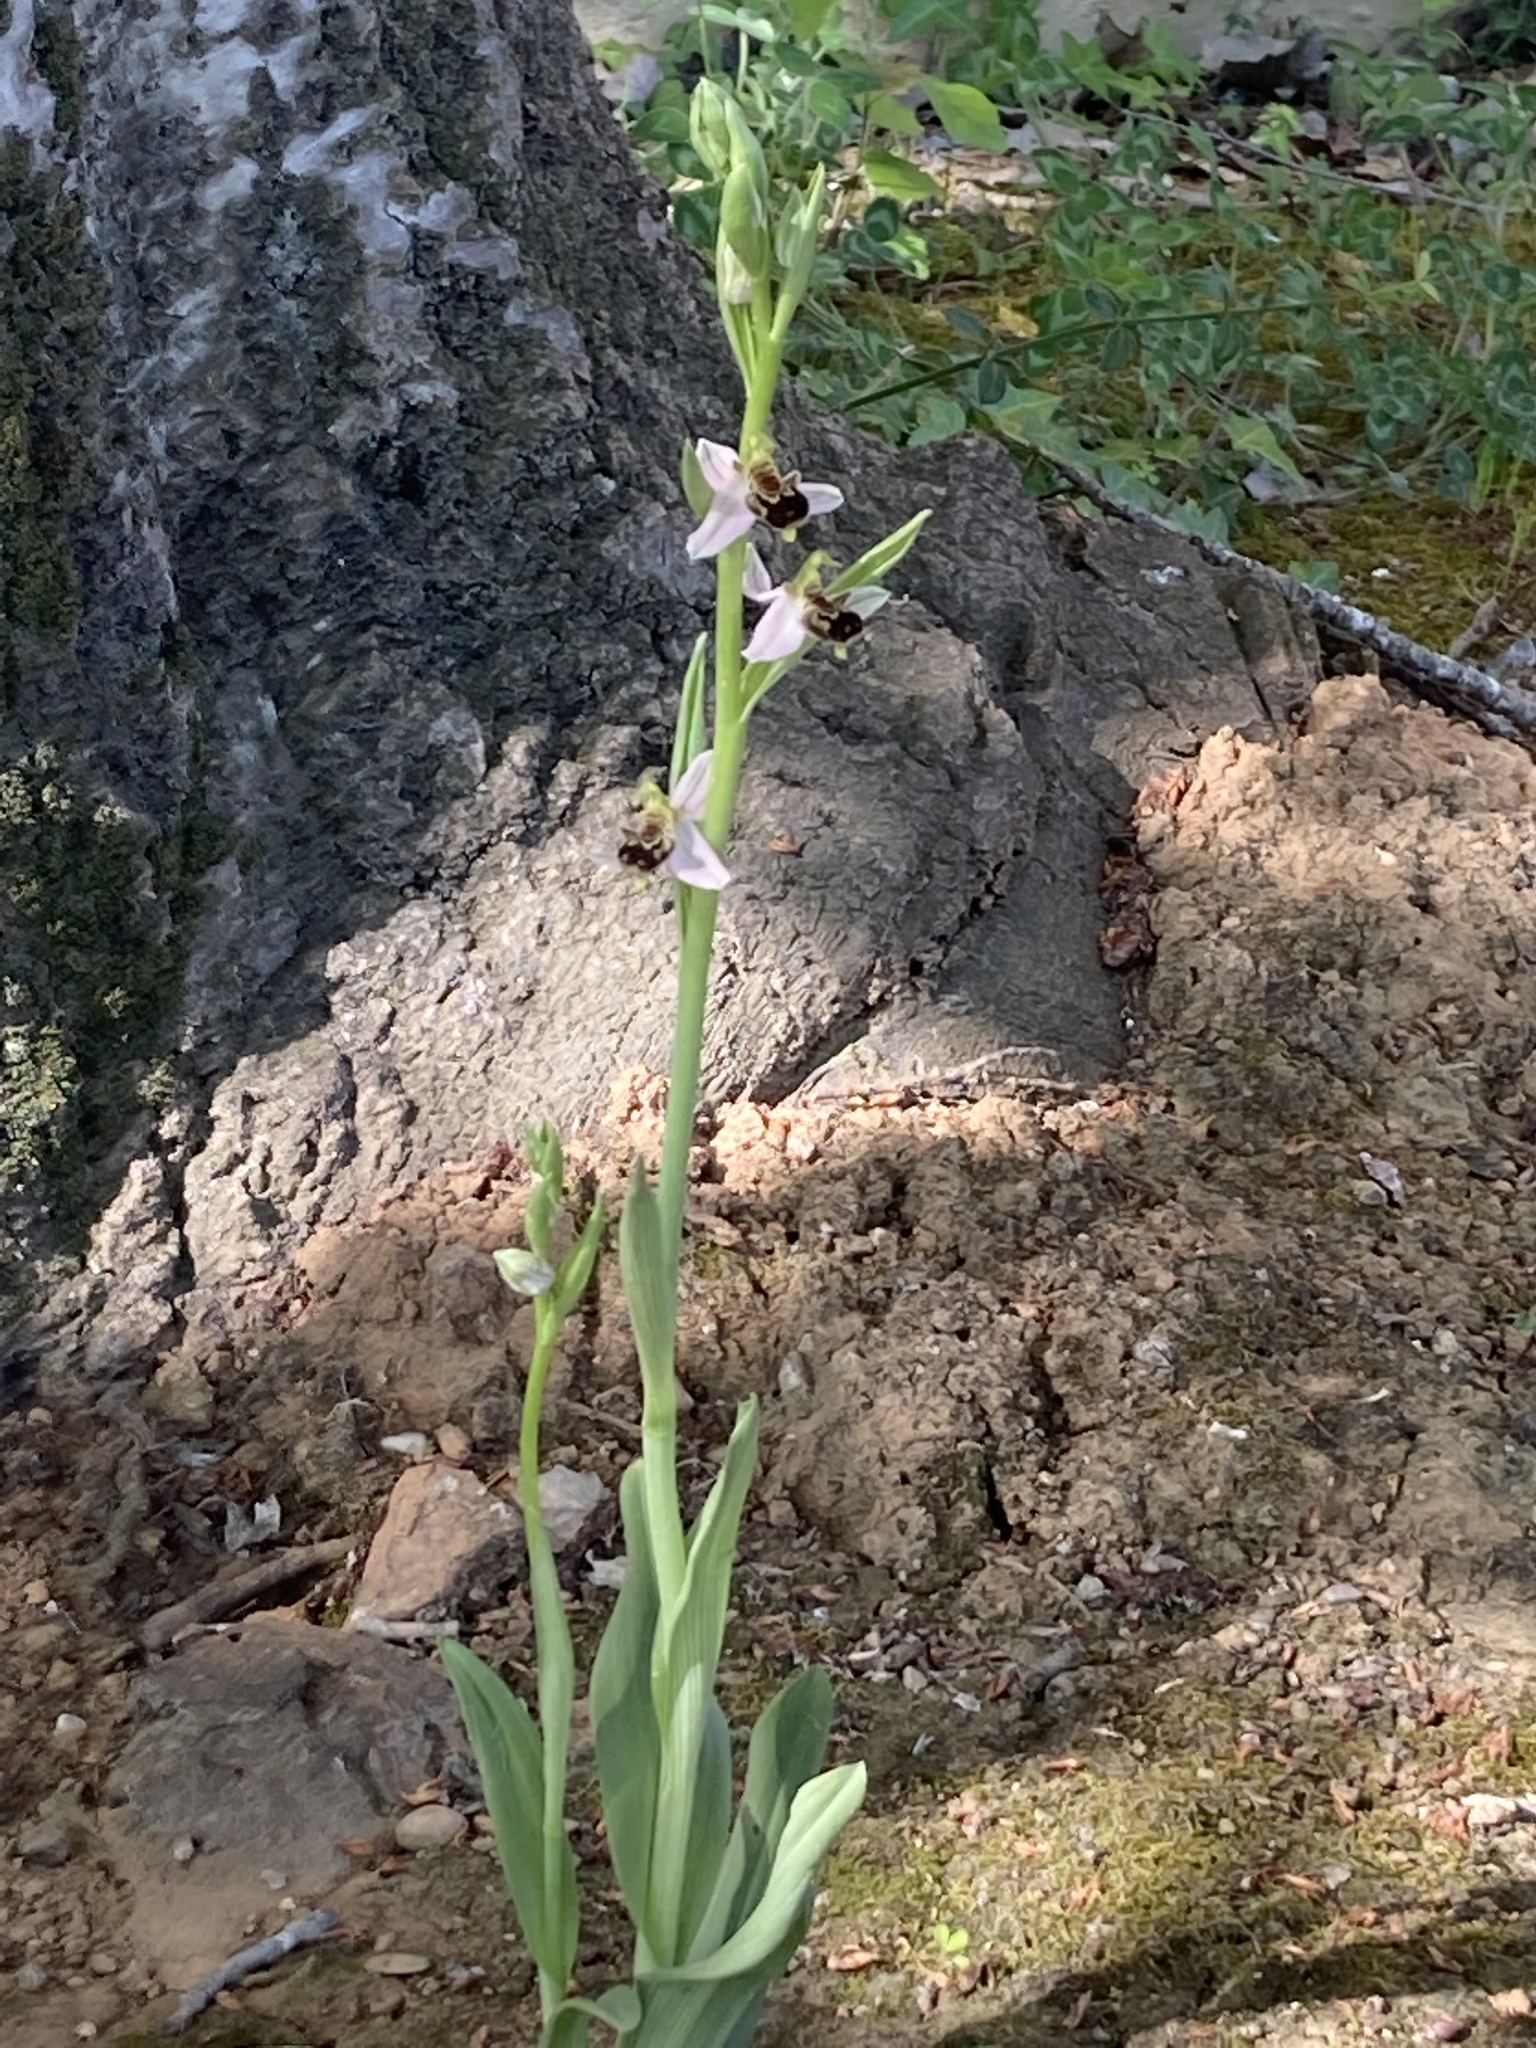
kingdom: Plantae
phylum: Tracheophyta
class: Liliopsida
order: Asparagales
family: Orchidaceae
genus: Ophrys
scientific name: Ophrys apifera
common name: Bee orchid
